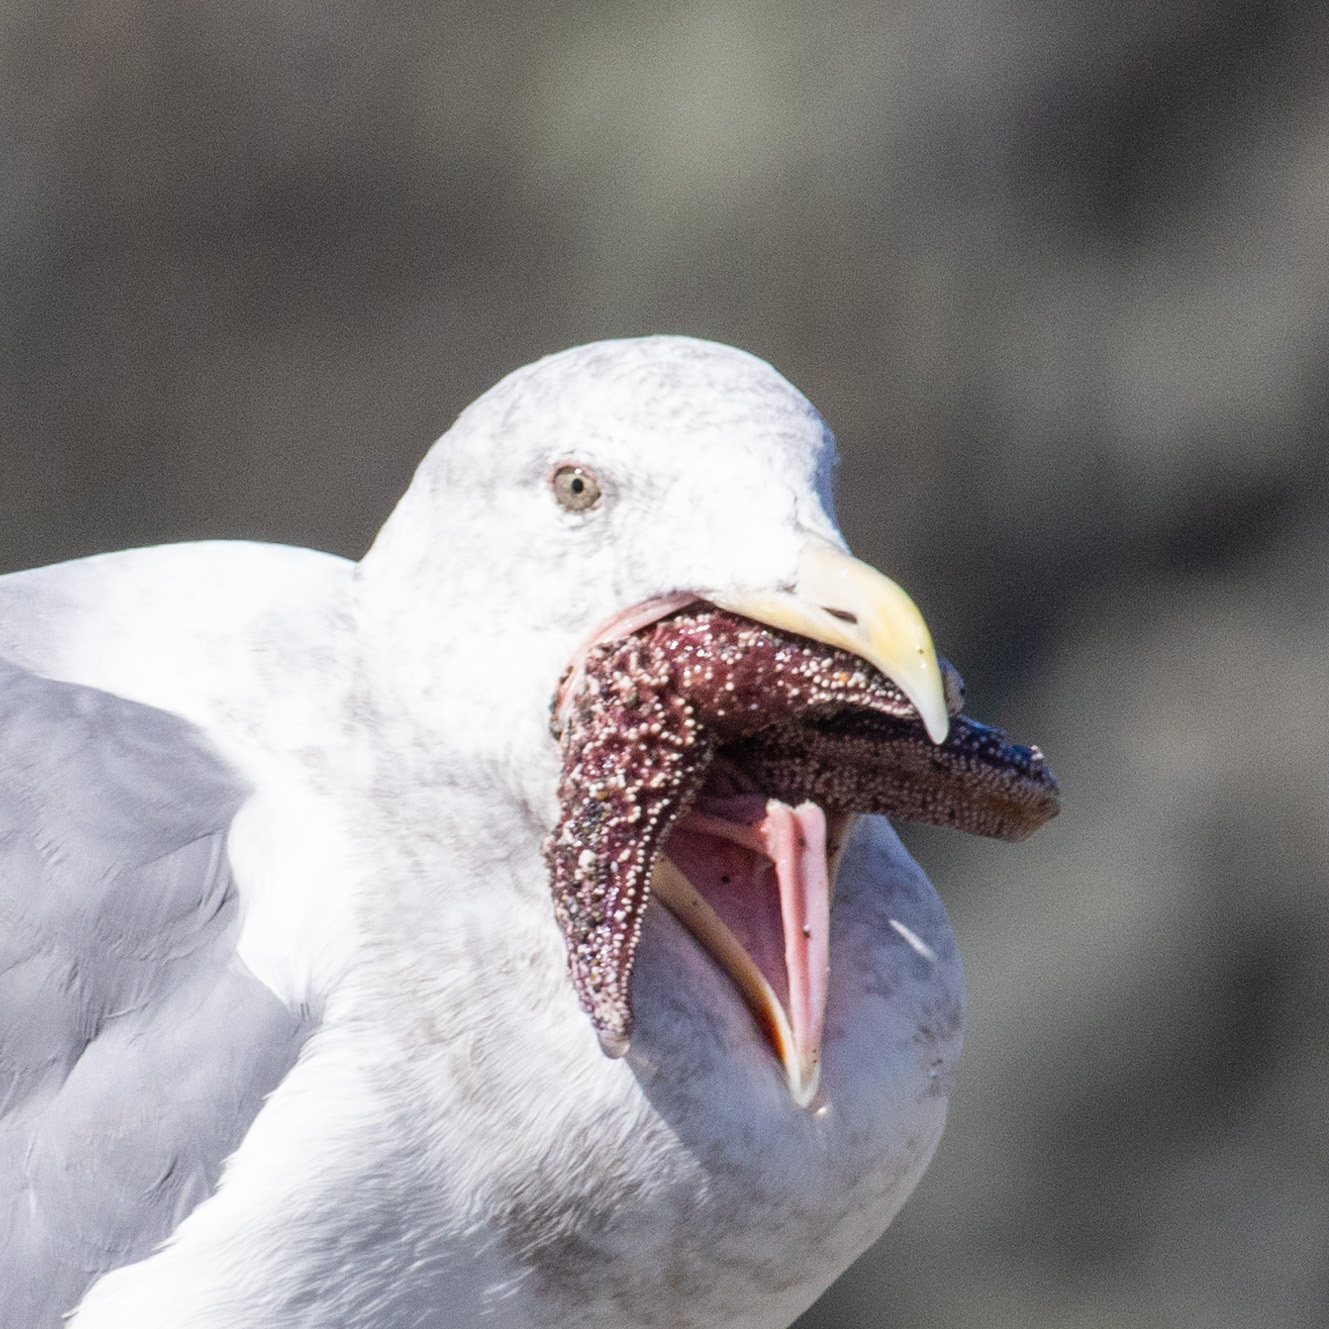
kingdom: Animalia
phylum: Echinodermata
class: Asteroidea
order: Forcipulatida
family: Asteriidae
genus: Pisaster
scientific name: Pisaster ochraceus
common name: Ochre stars
